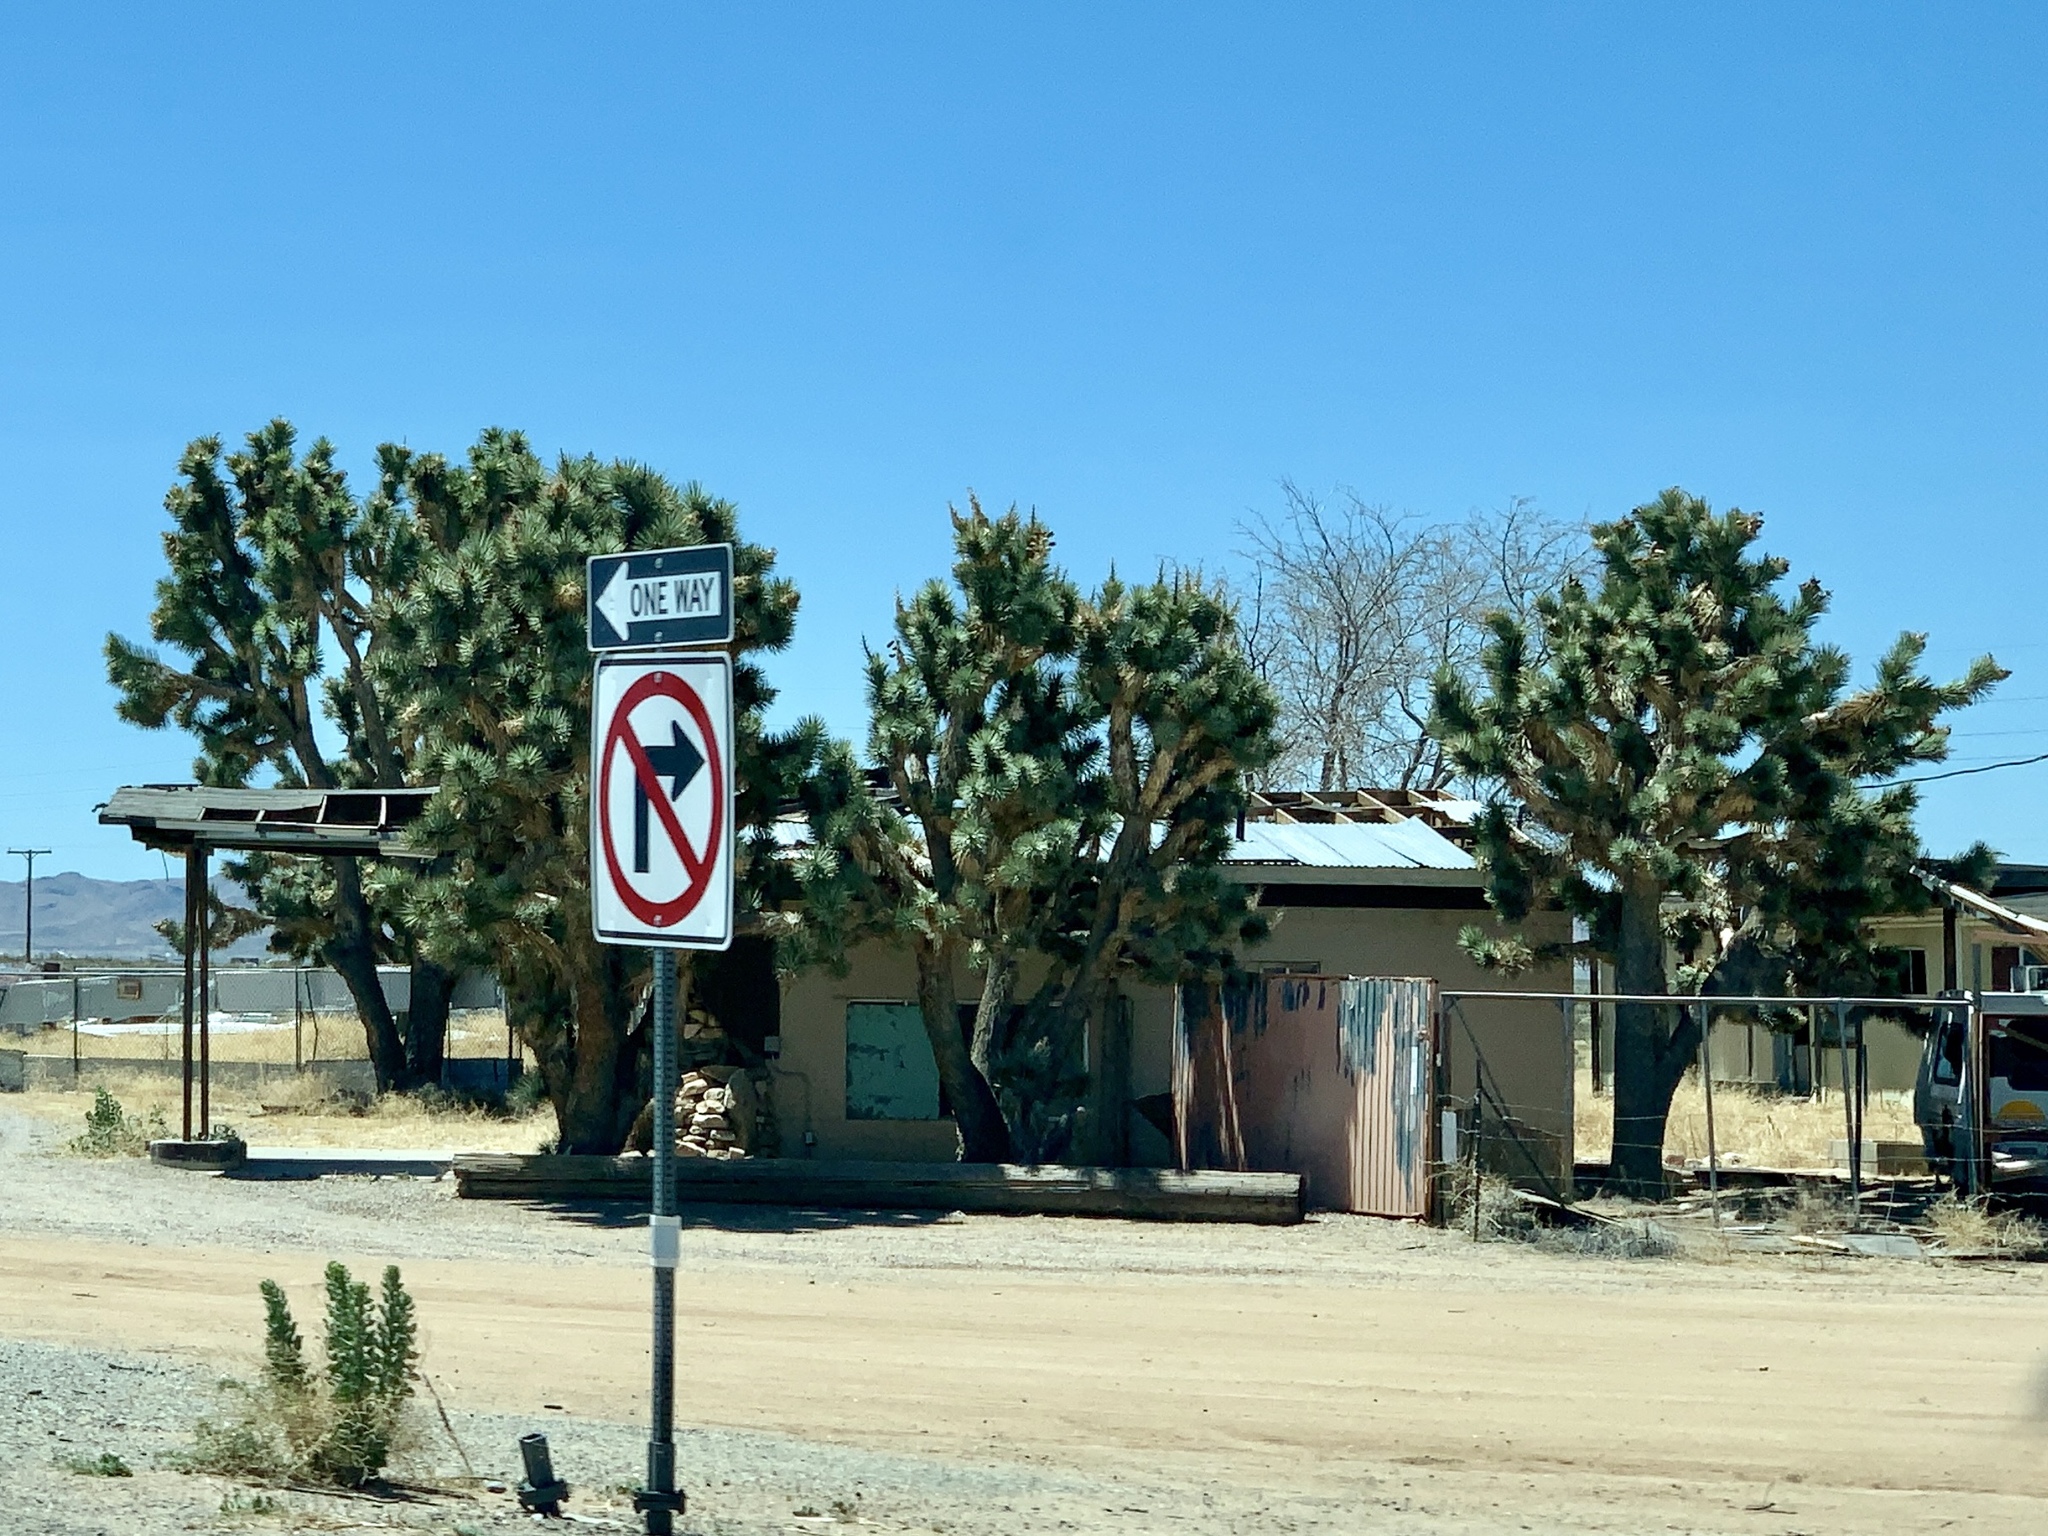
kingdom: Plantae
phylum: Tracheophyta
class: Liliopsida
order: Asparagales
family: Asparagaceae
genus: Yucca
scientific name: Yucca brevifolia
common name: Joshua tree
